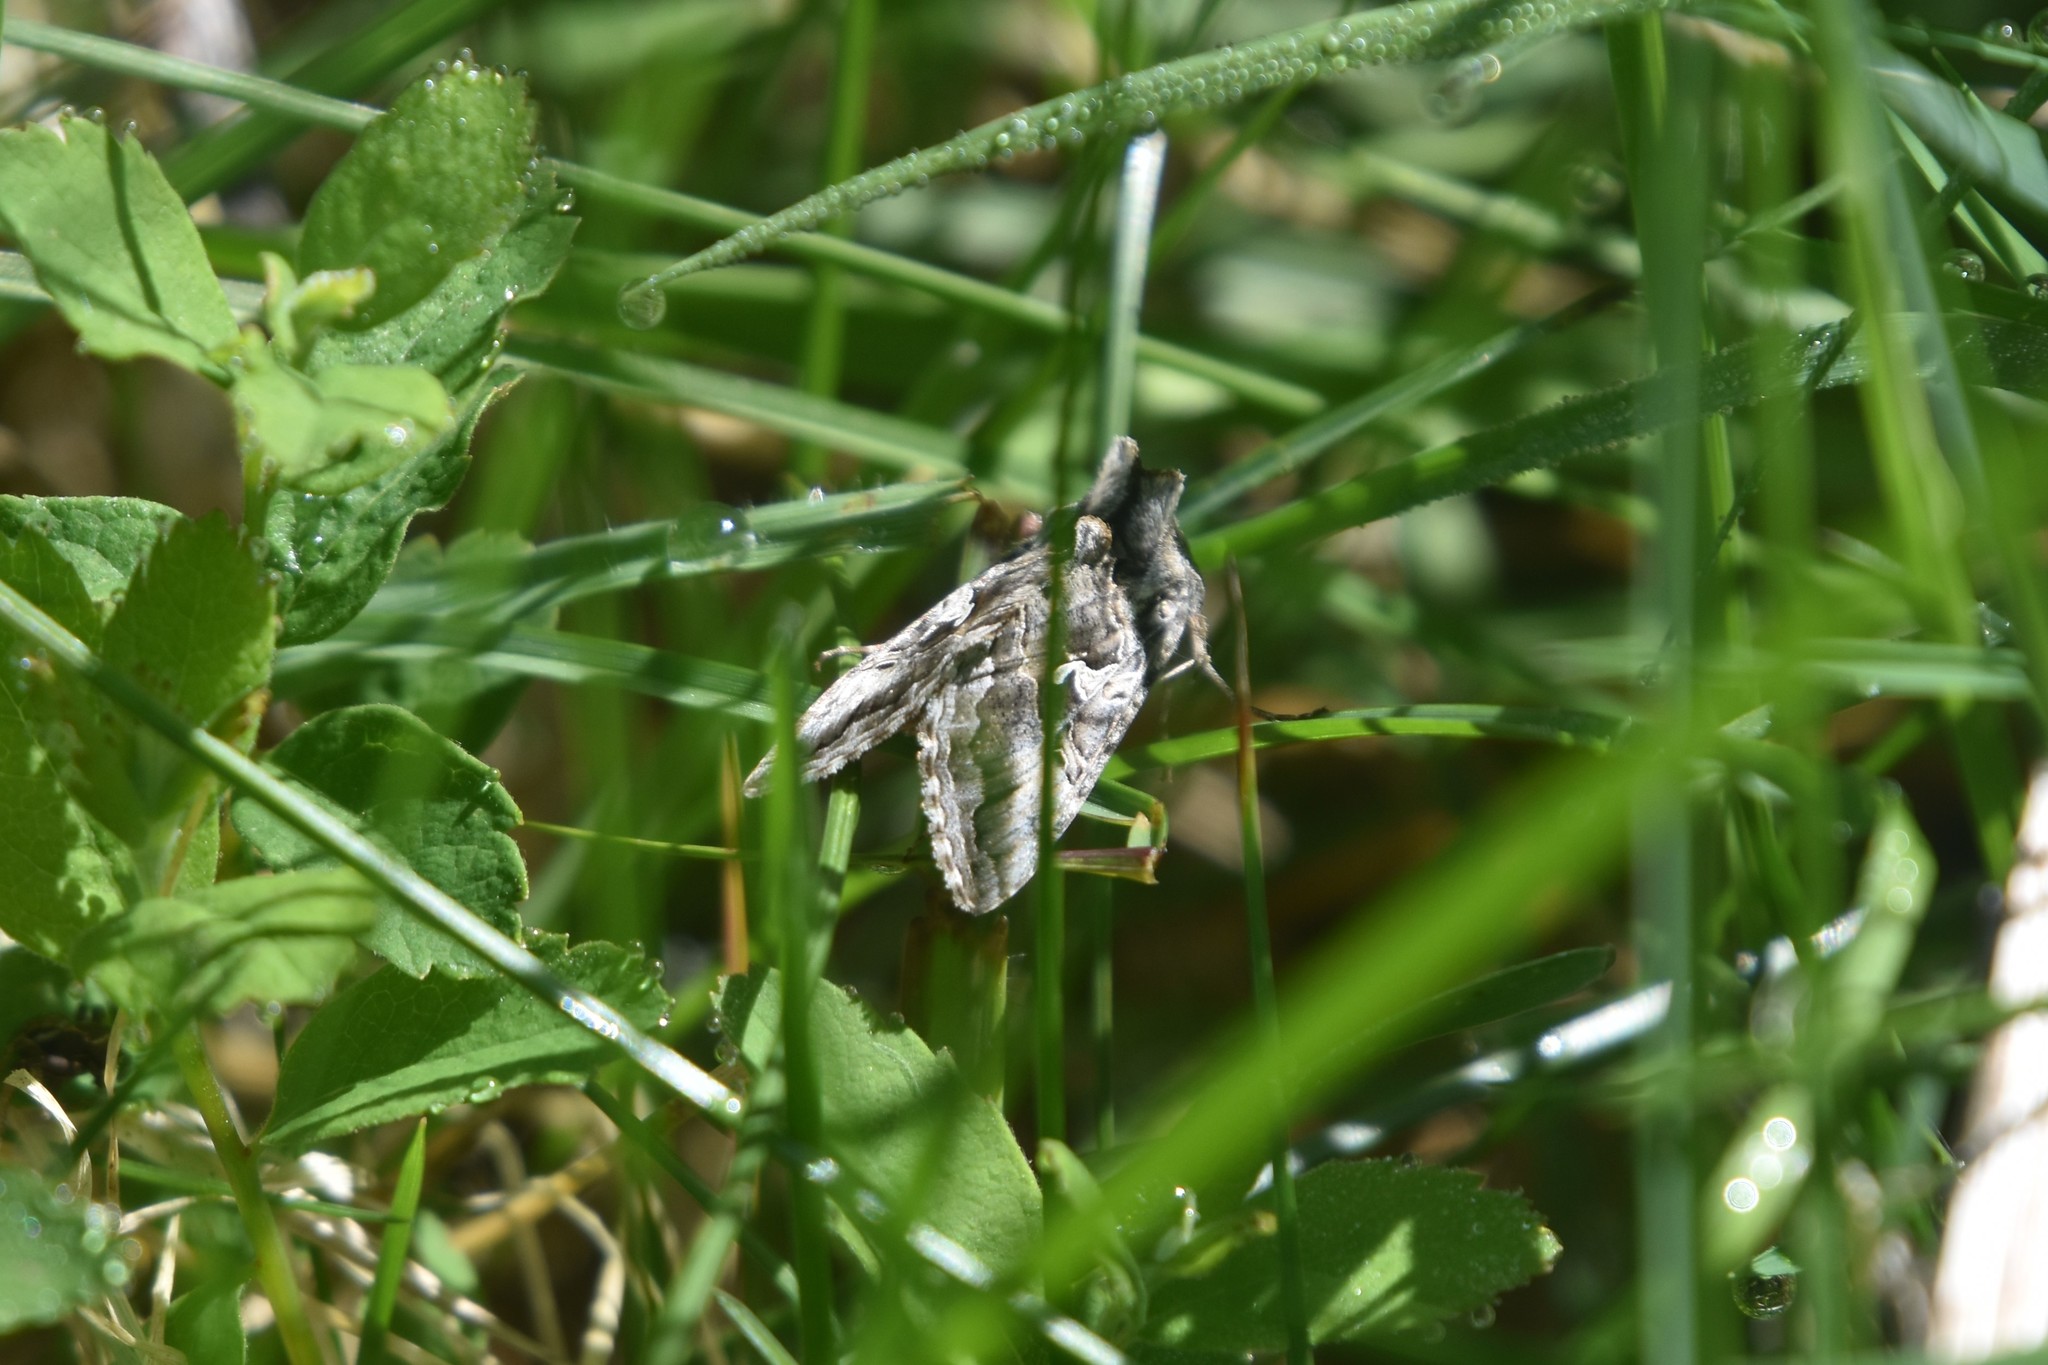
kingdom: Animalia
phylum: Arthropoda
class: Insecta
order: Lepidoptera
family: Noctuidae
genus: Autographa
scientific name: Autographa californica
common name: Alfalfa looper
